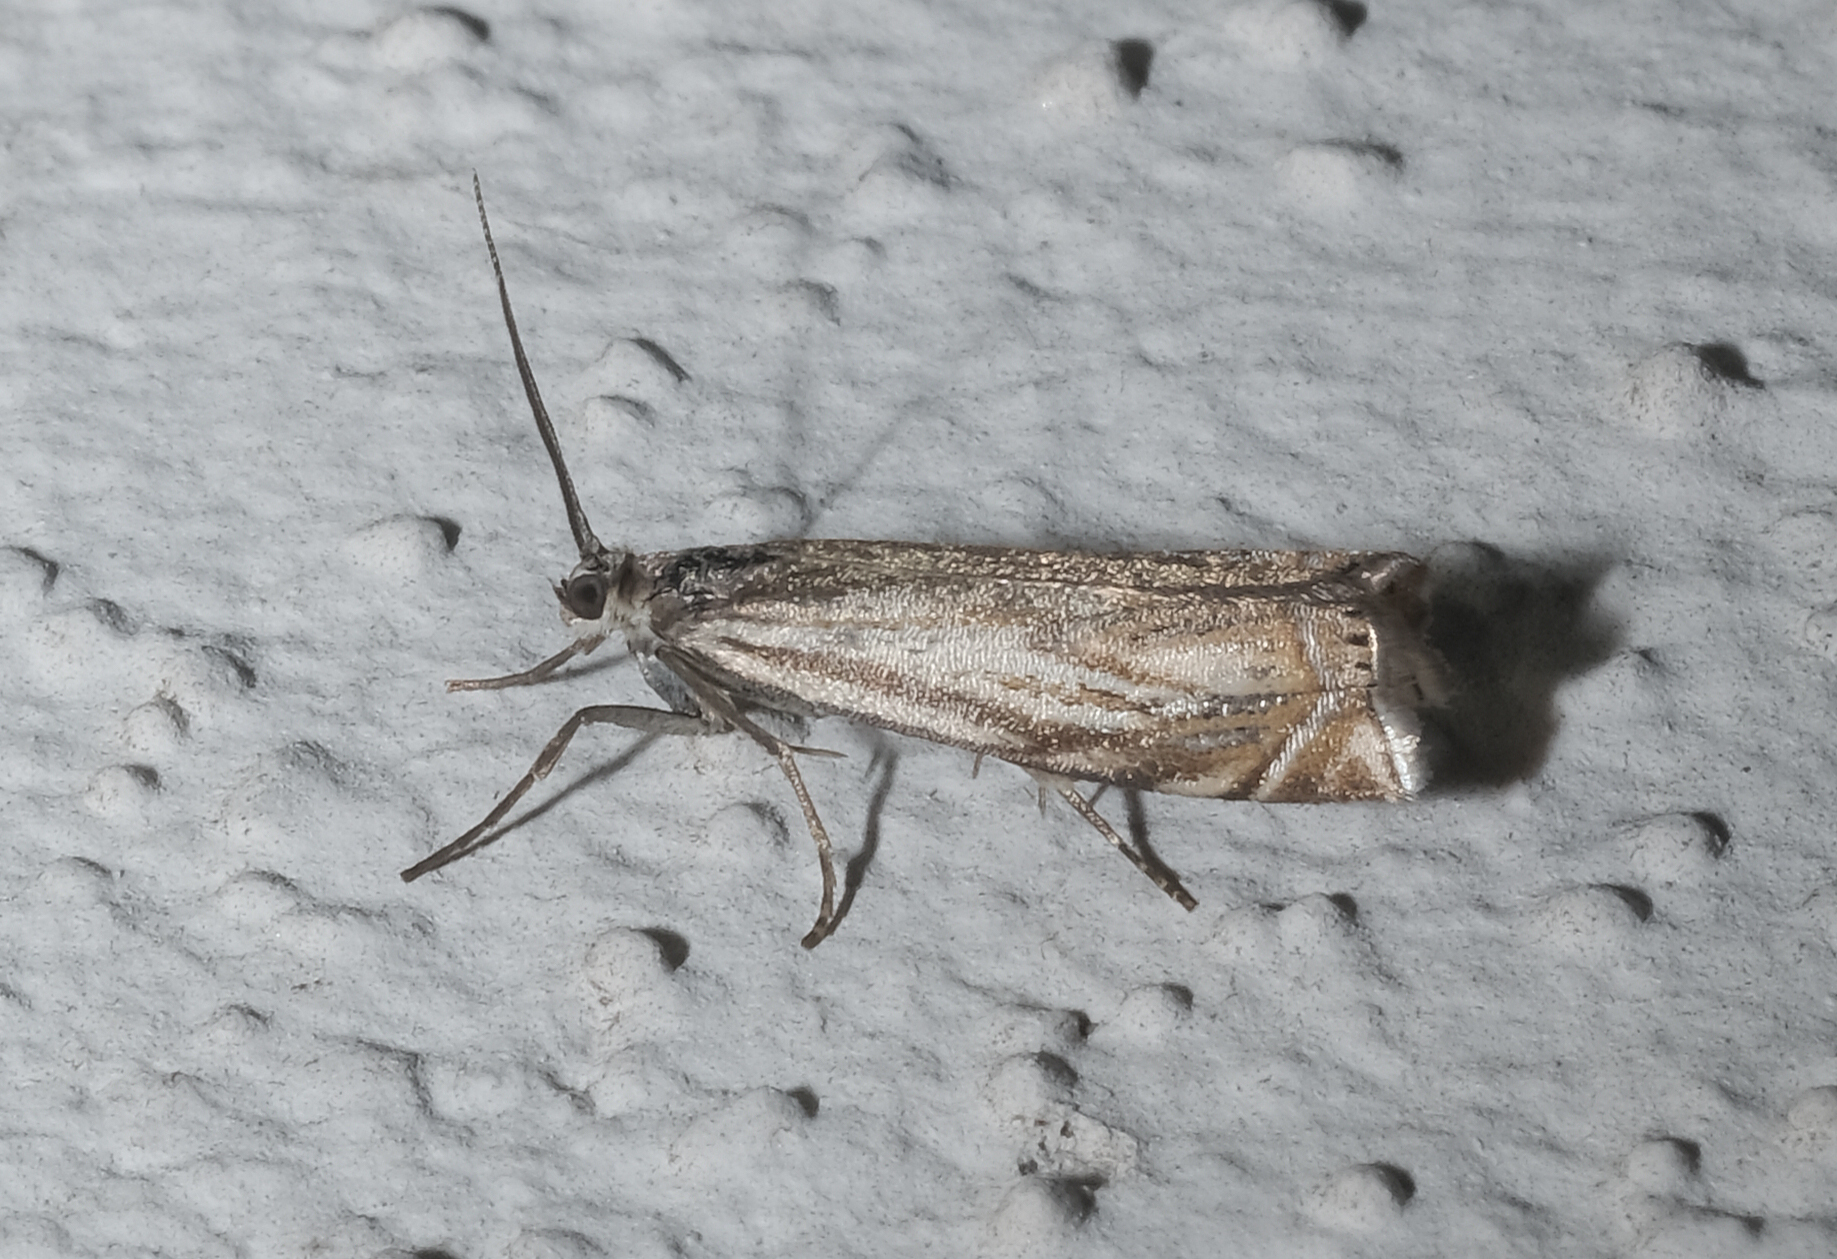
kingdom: Animalia
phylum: Arthropoda
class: Insecta
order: Lepidoptera
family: Crambidae
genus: Crambus
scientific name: Crambus nemorella
